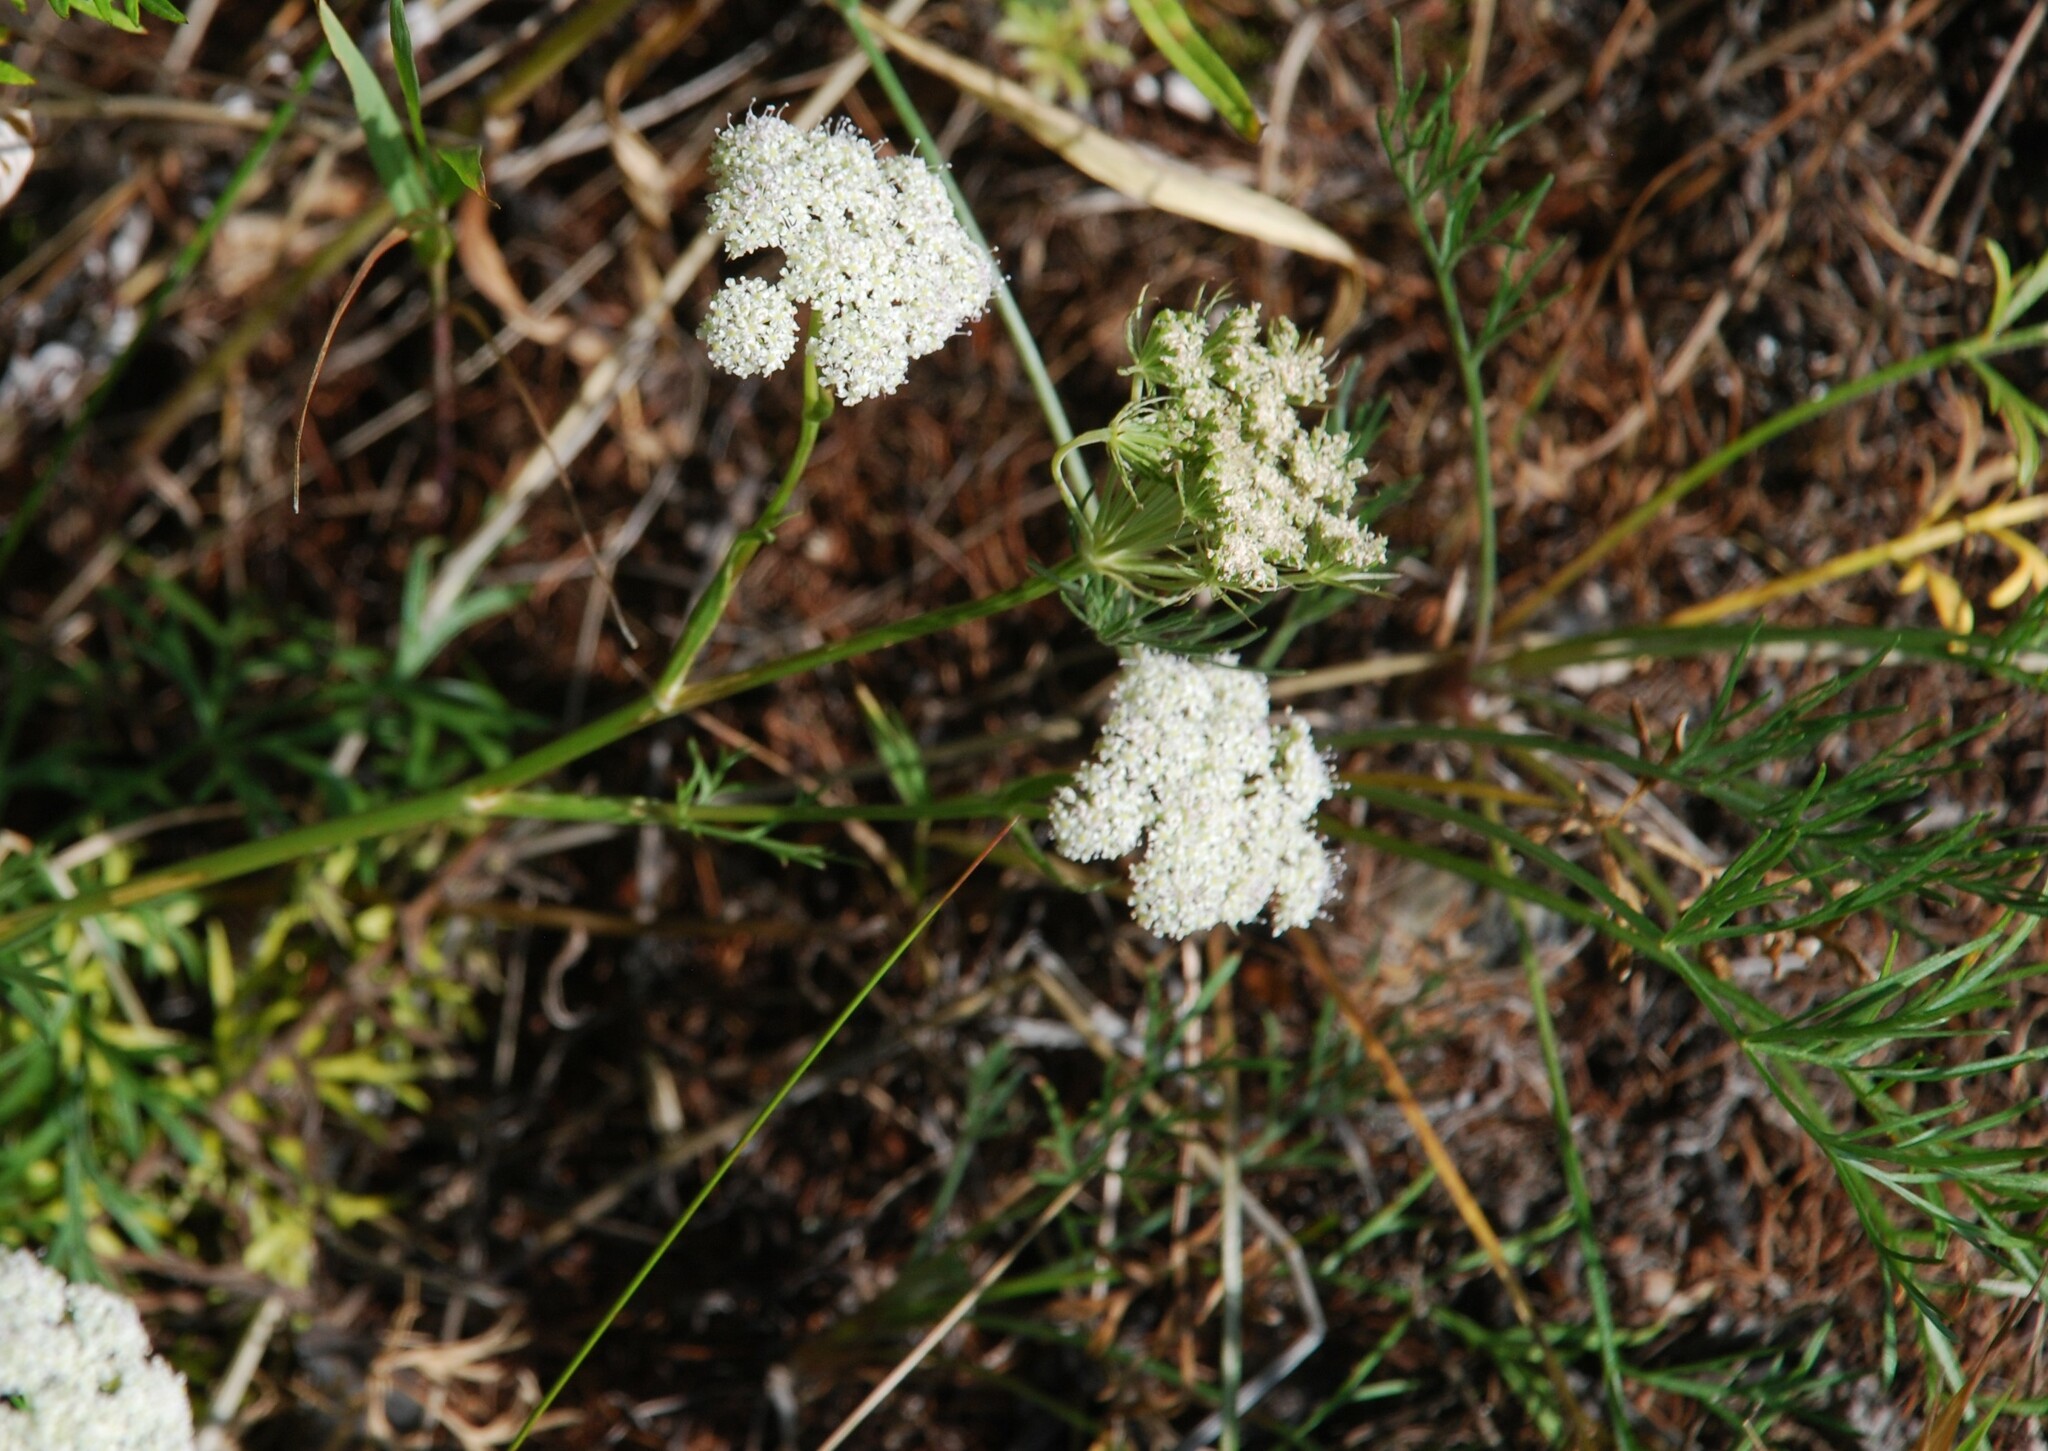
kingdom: Plantae
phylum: Tracheophyta
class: Magnoliopsida
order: Apiales
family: Apiaceae
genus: Kitagawia
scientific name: Kitagawia baicalensis
